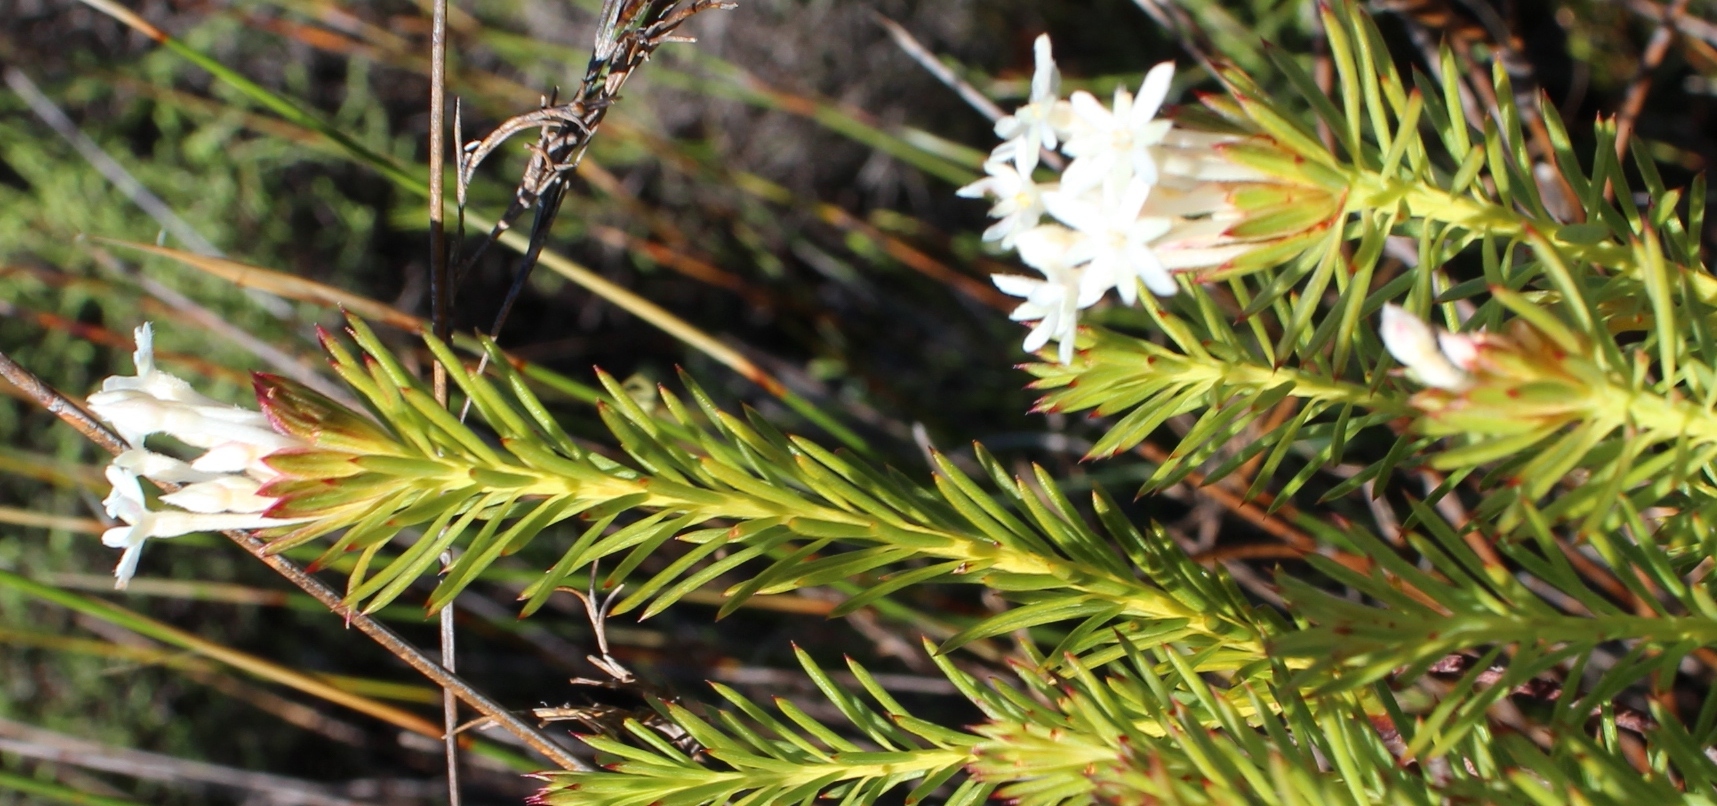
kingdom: Plantae
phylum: Tracheophyta
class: Magnoliopsida
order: Malvales
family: Thymelaeaceae
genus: Gnidia
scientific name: Gnidia pinifolia
